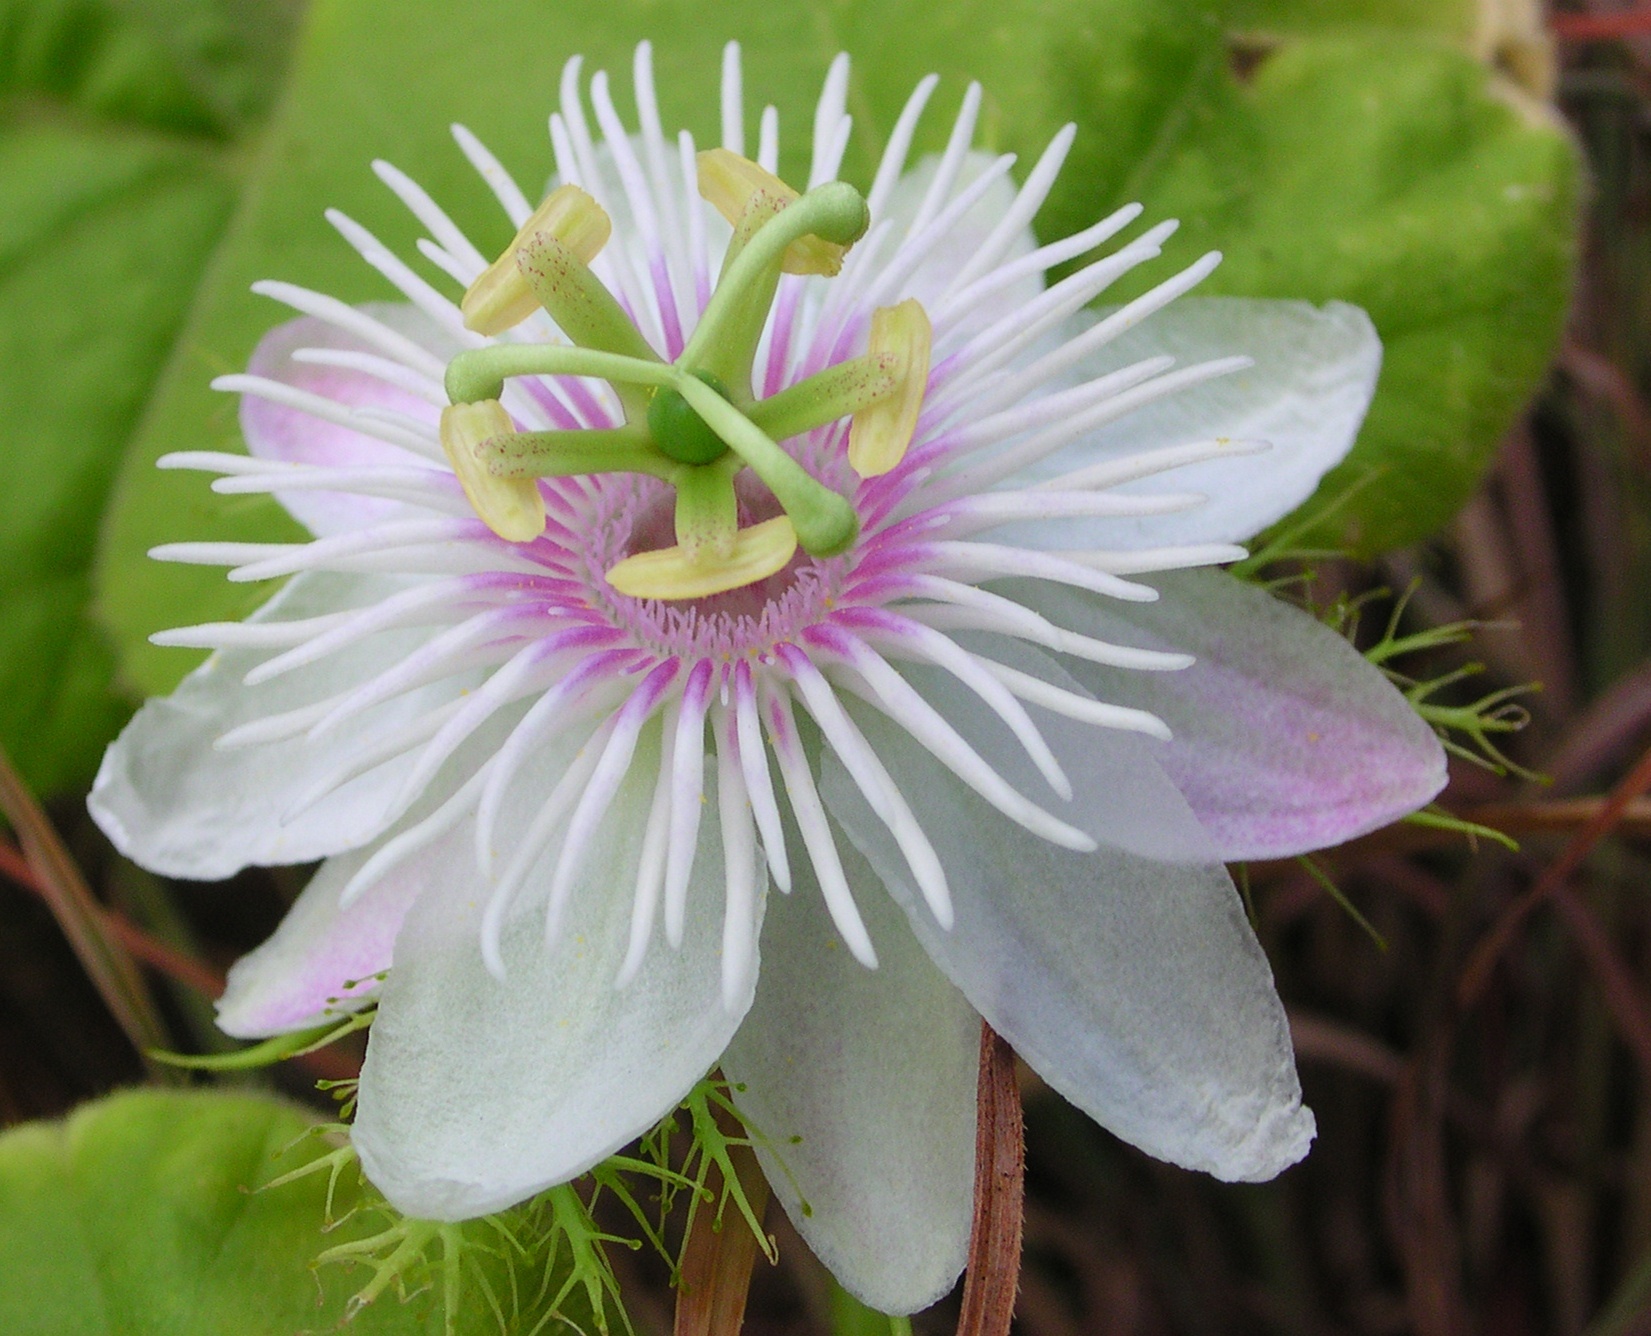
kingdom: Plantae
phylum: Tracheophyta
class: Magnoliopsida
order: Malpighiales
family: Passifloraceae
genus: Passiflora
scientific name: Passiflora foetida
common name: Fetid passionflower
